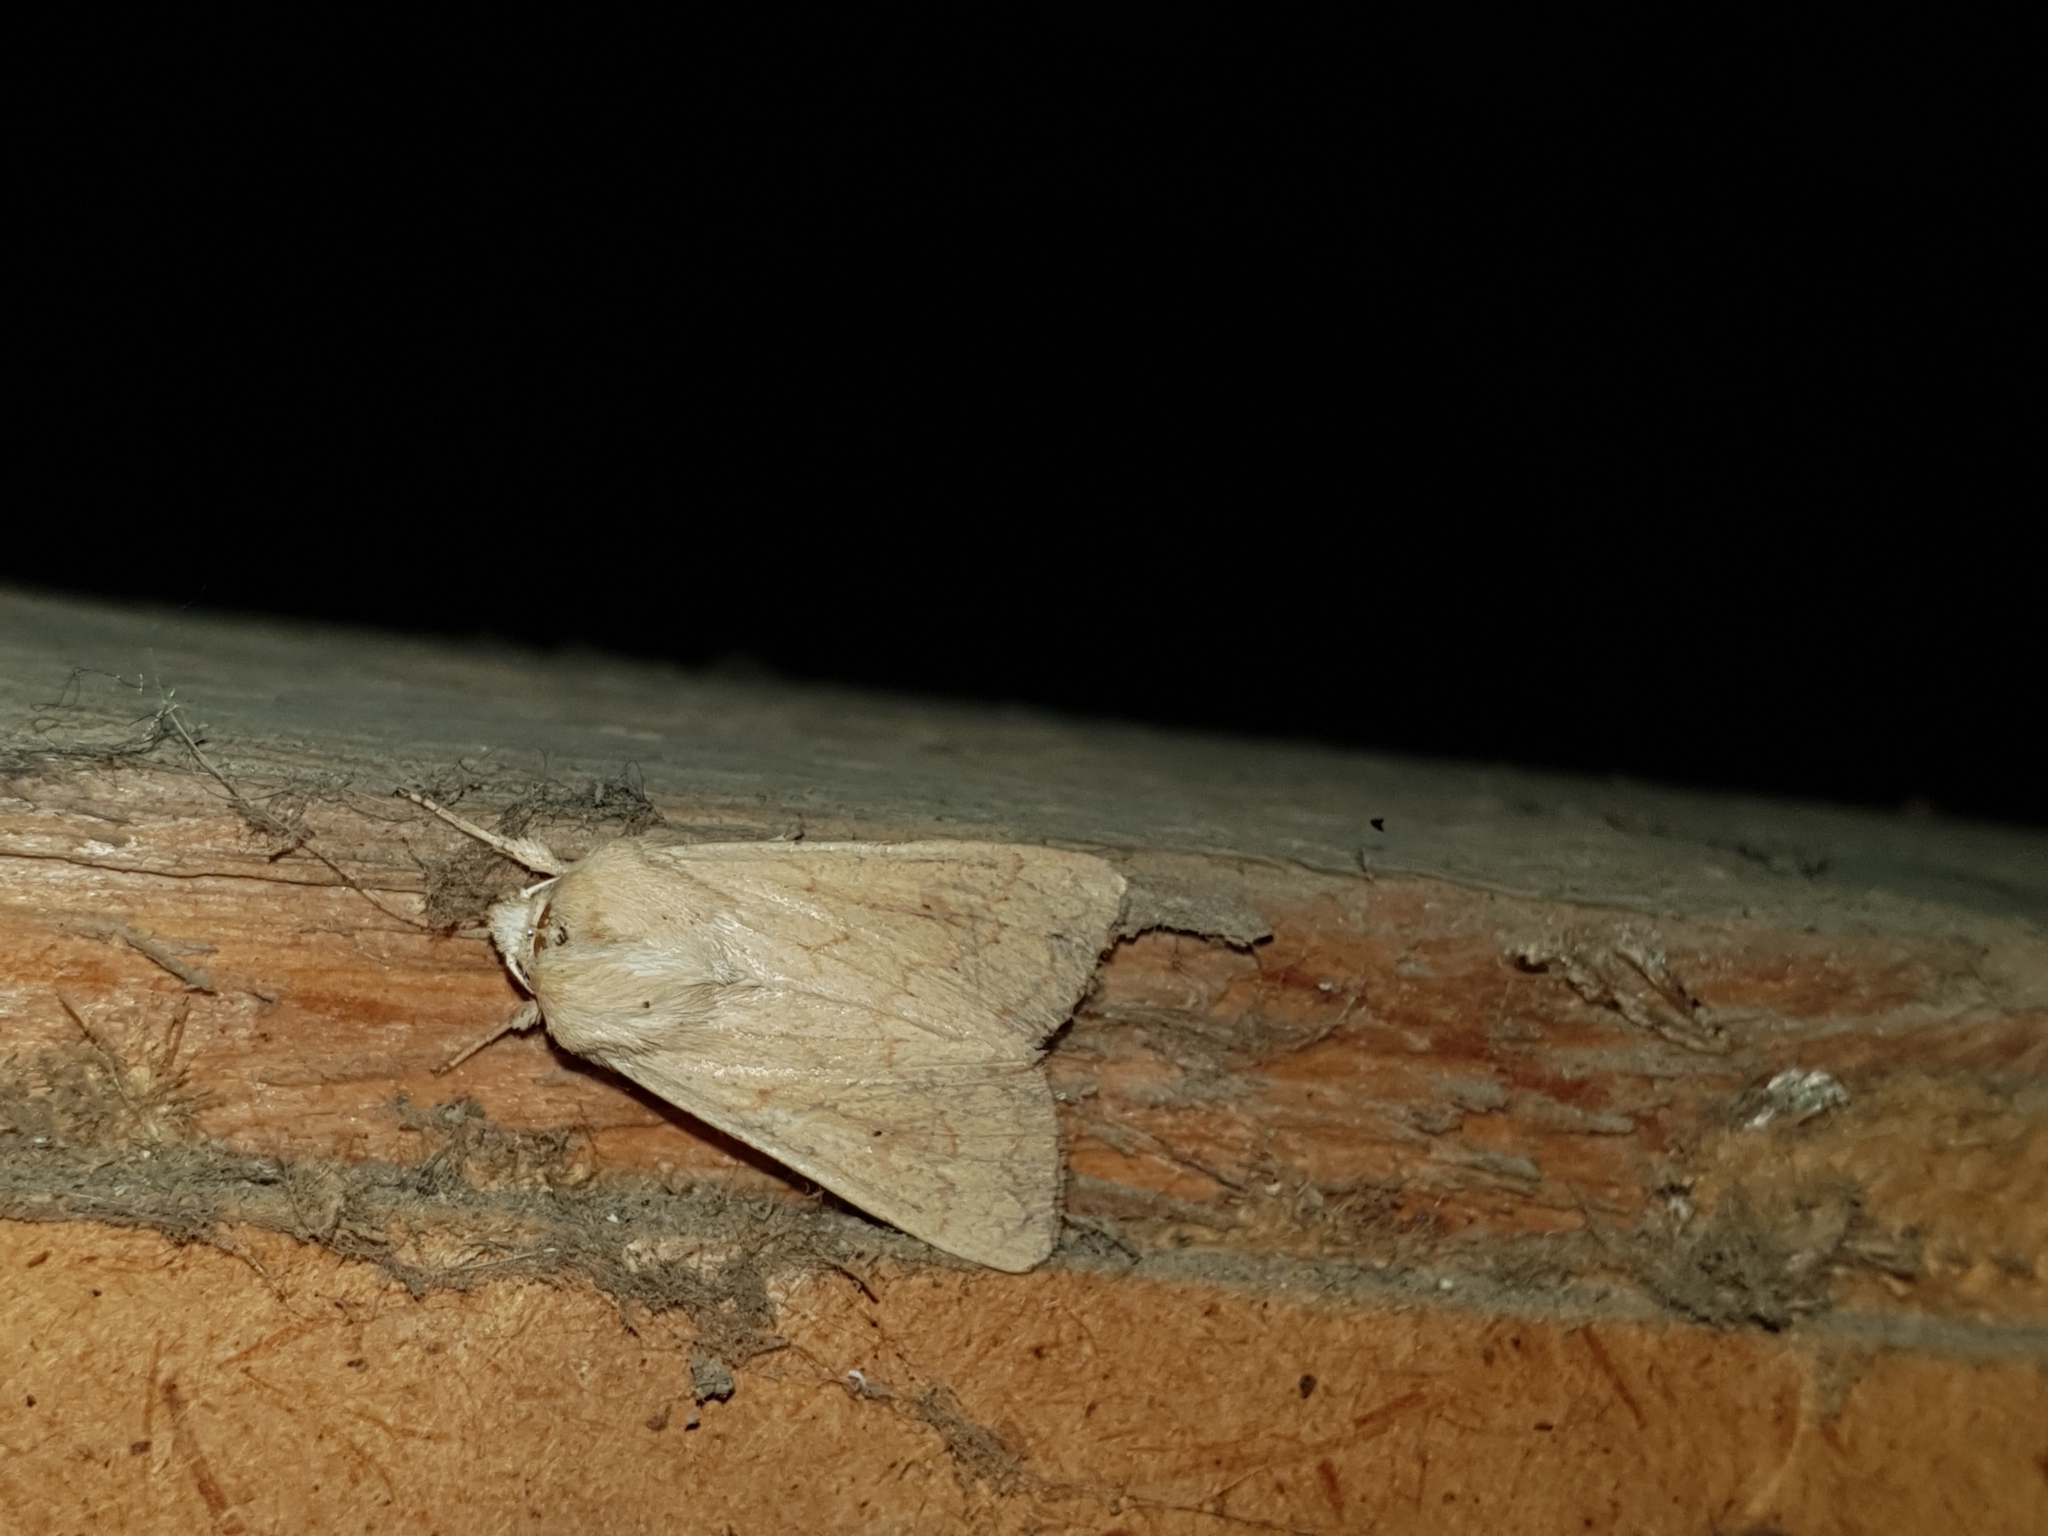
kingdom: Animalia
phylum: Arthropoda
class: Insecta
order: Lepidoptera
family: Noctuidae
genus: Mythimna
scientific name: Mythimna vitellina
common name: Delicate
